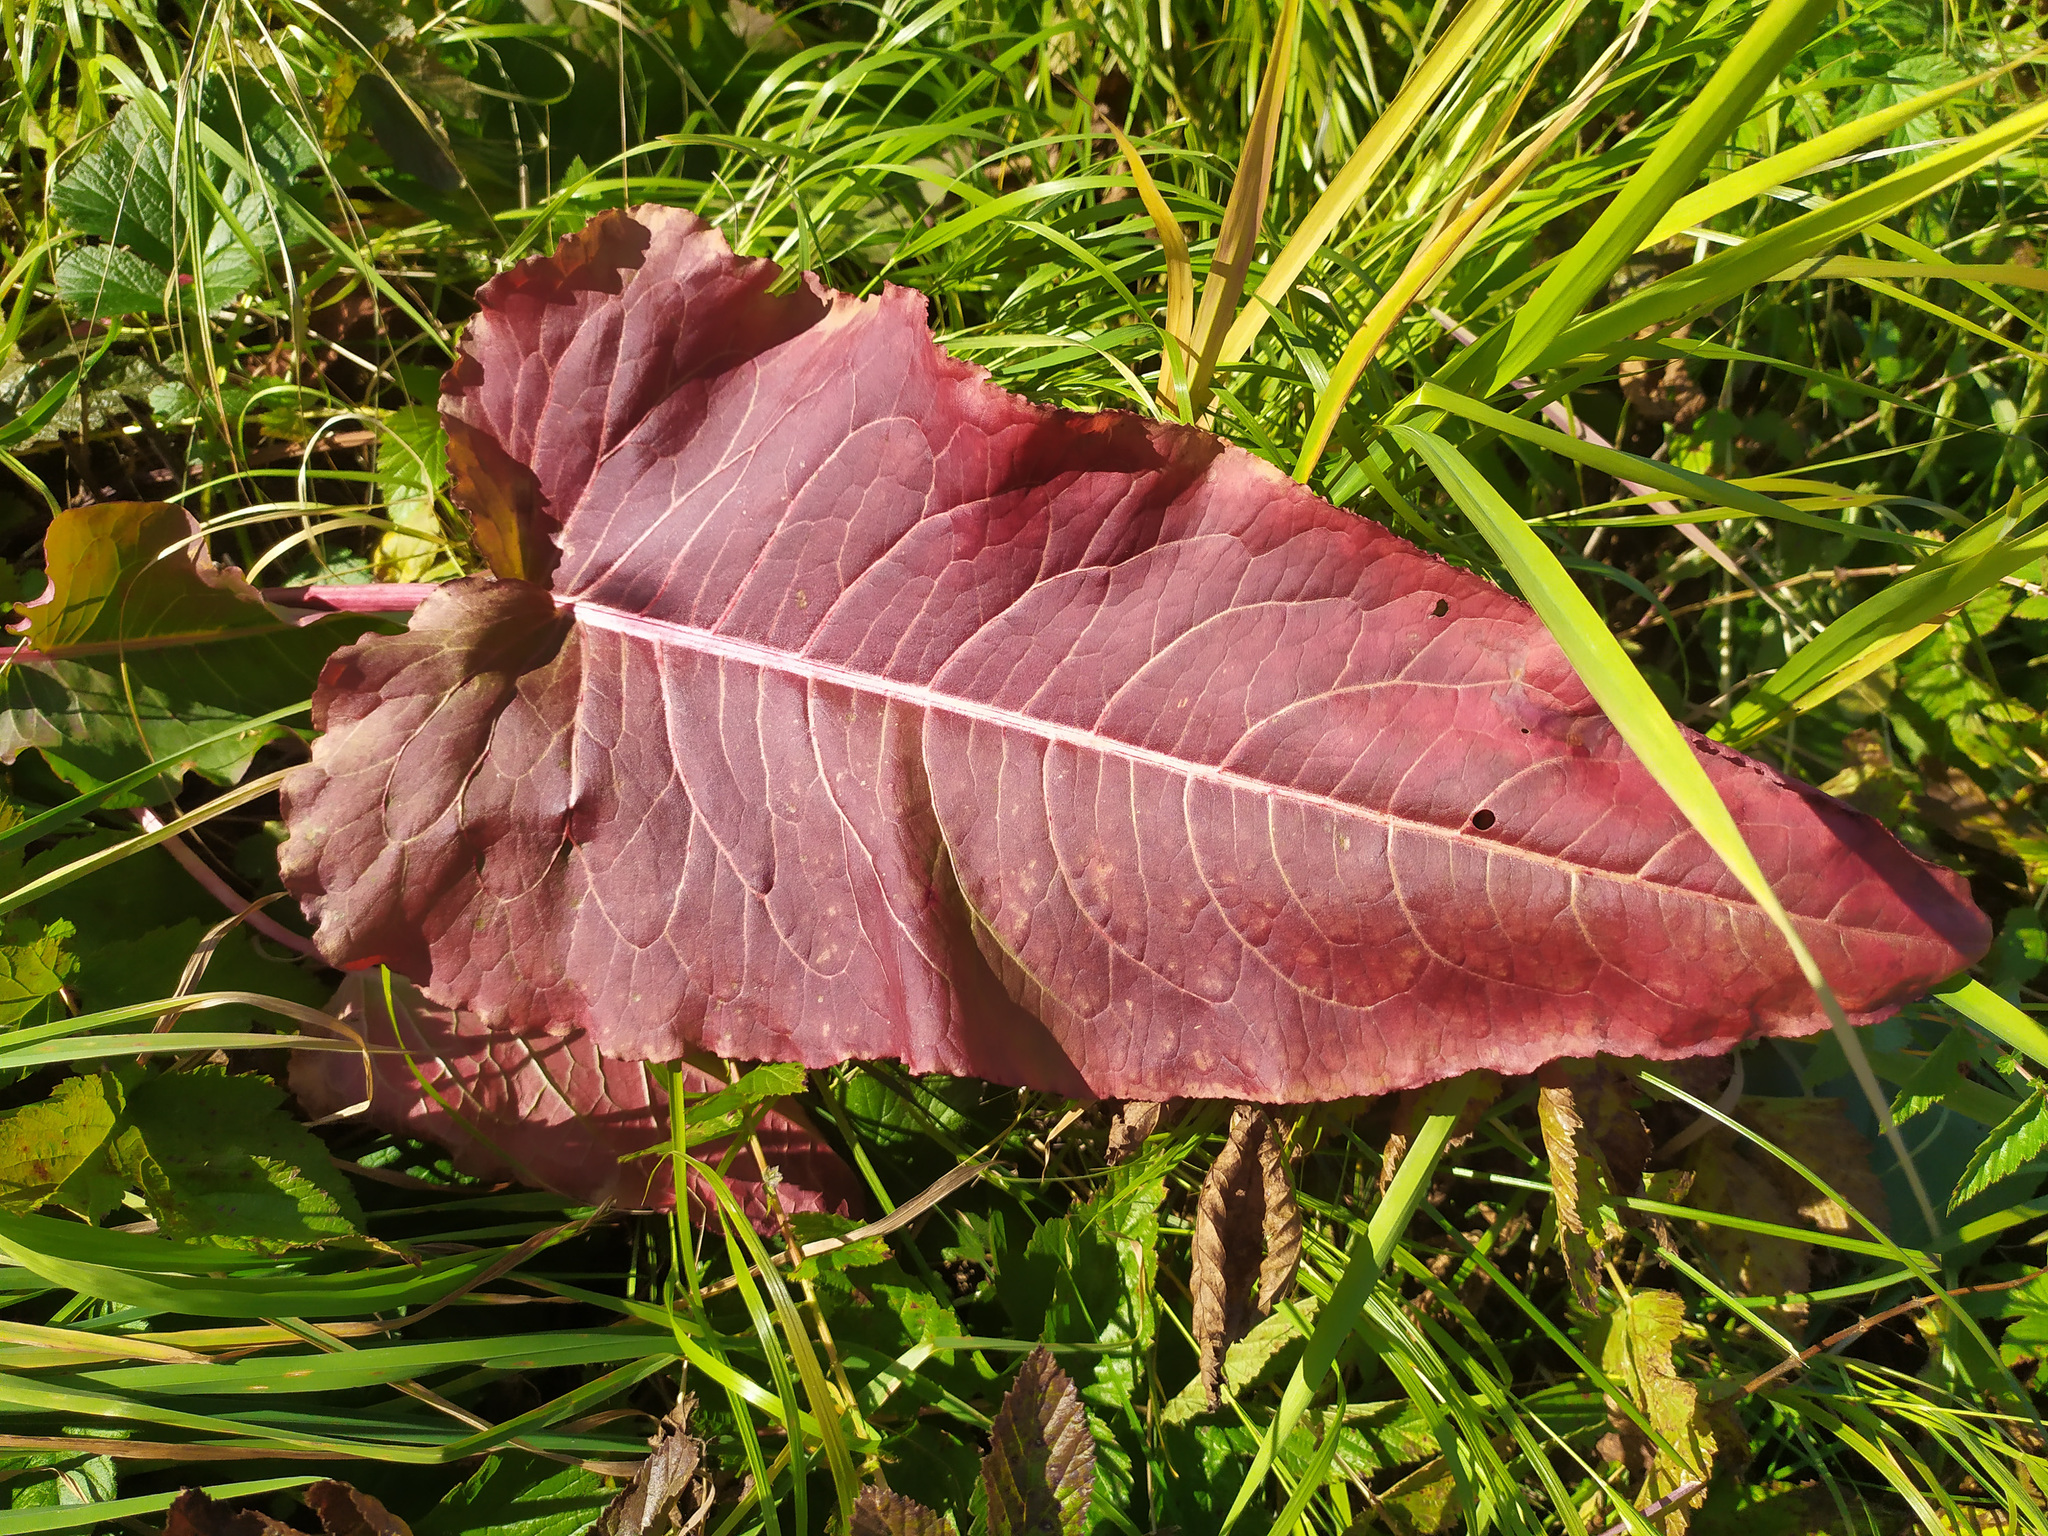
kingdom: Plantae
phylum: Tracheophyta
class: Magnoliopsida
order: Caryophyllales
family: Polygonaceae
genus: Rumex
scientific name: Rumex aquaticus
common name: Scottish dock
